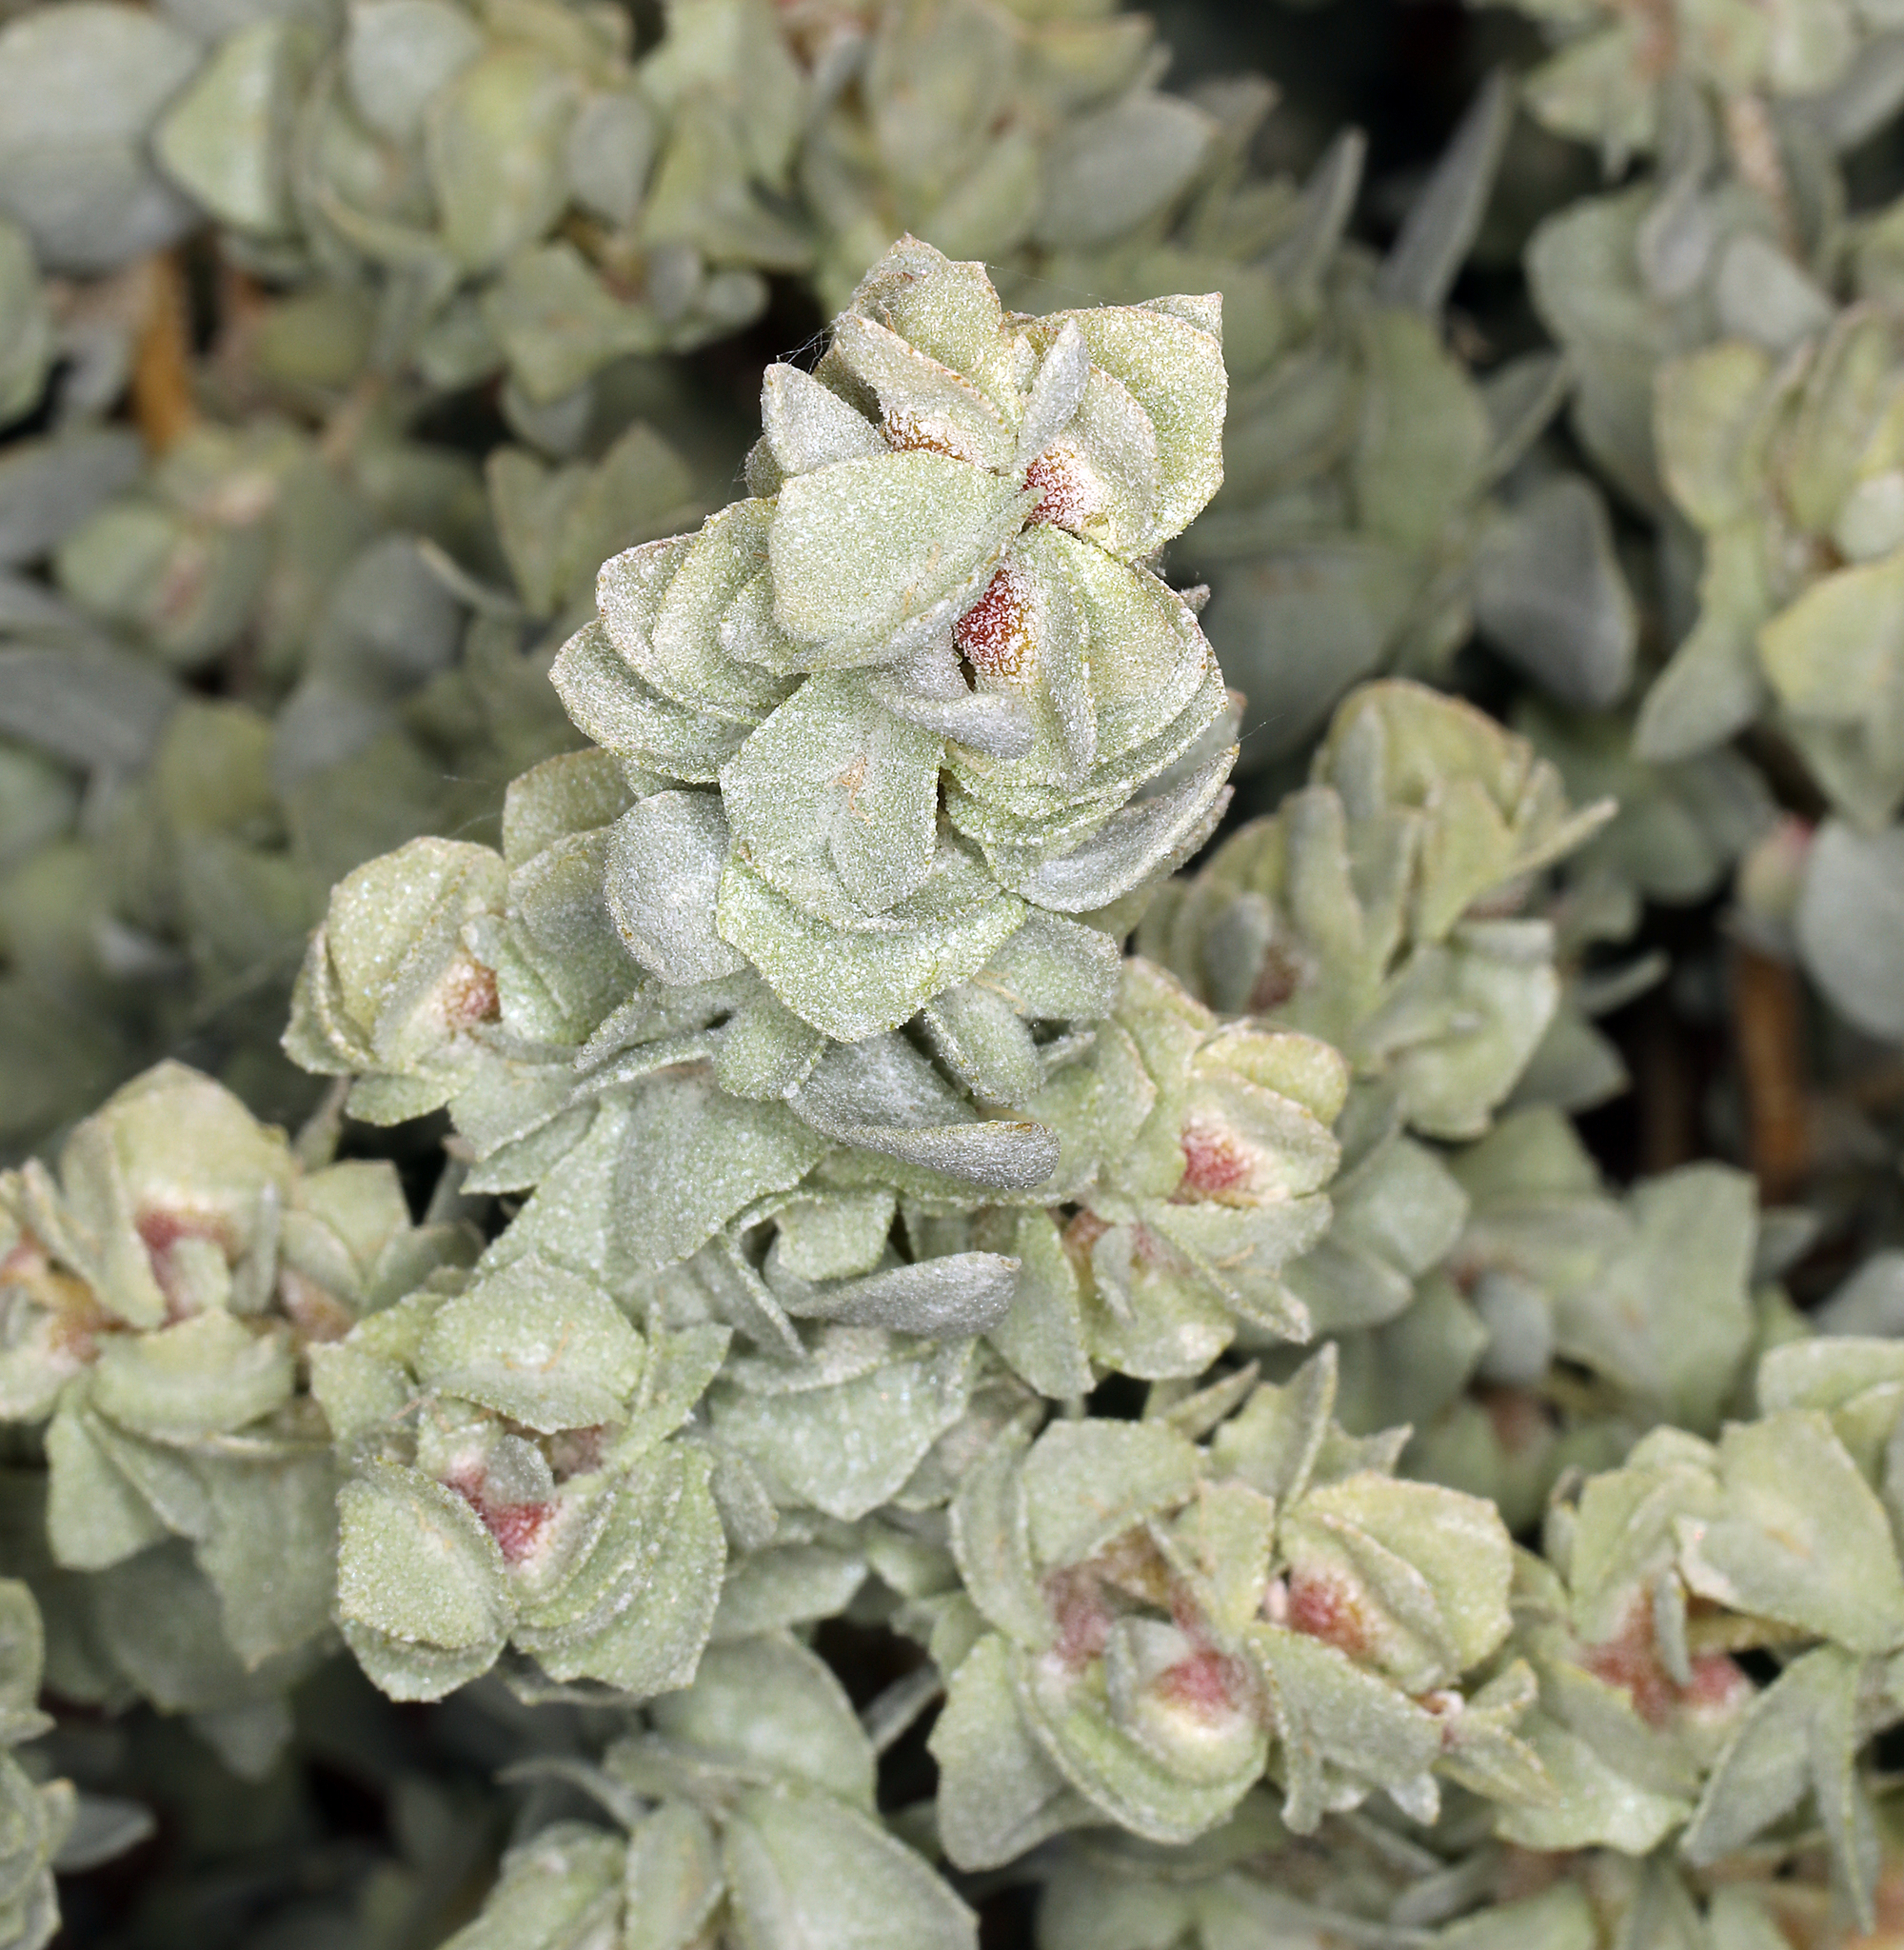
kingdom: Plantae
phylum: Tracheophyta
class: Magnoliopsida
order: Caryophyllales
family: Amaranthaceae
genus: Atriplex
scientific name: Atriplex confertifolia
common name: Shadscale
